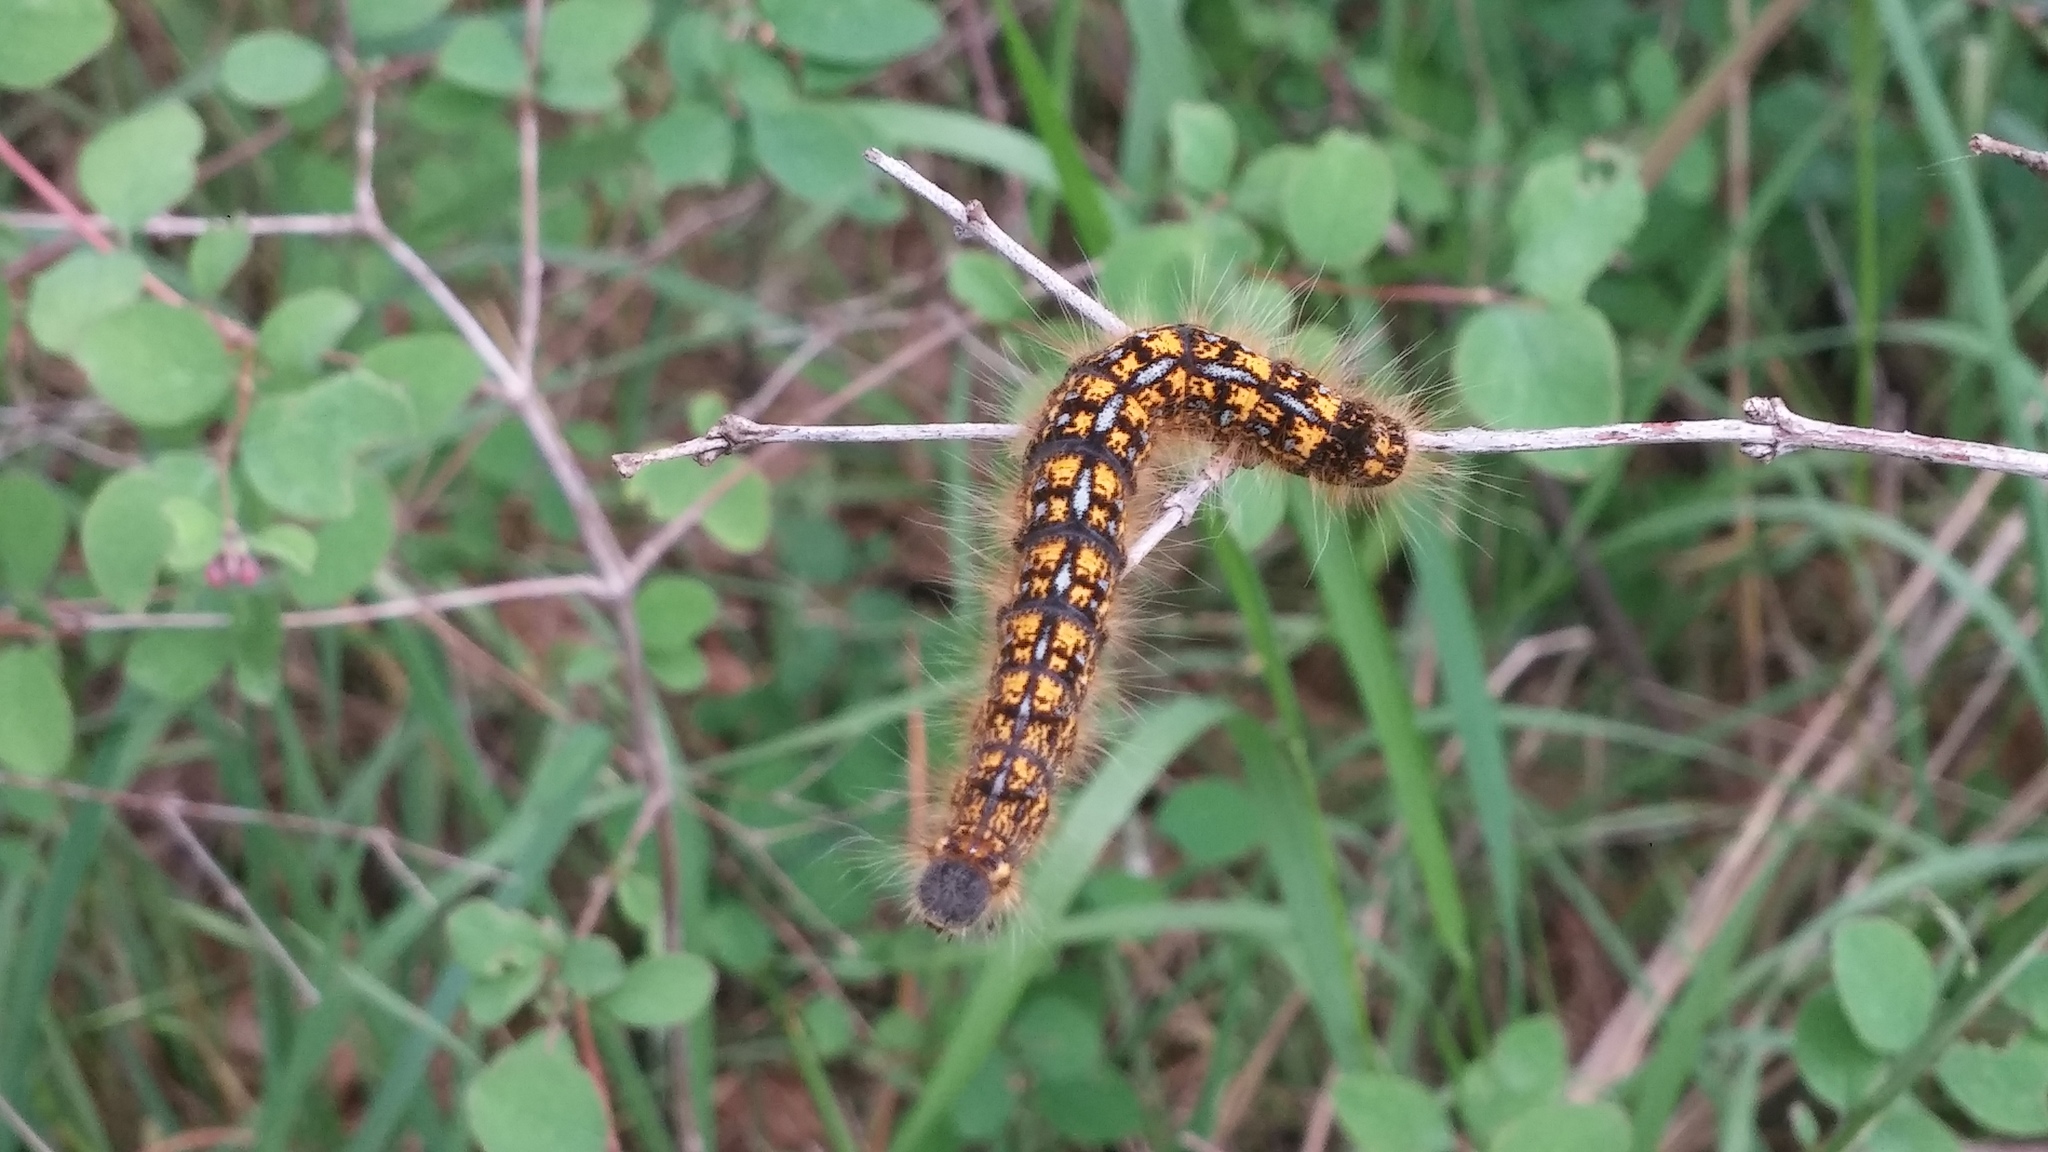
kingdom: Animalia
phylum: Arthropoda
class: Insecta
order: Lepidoptera
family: Lasiocampidae
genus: Malacosoma
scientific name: Malacosoma californica
